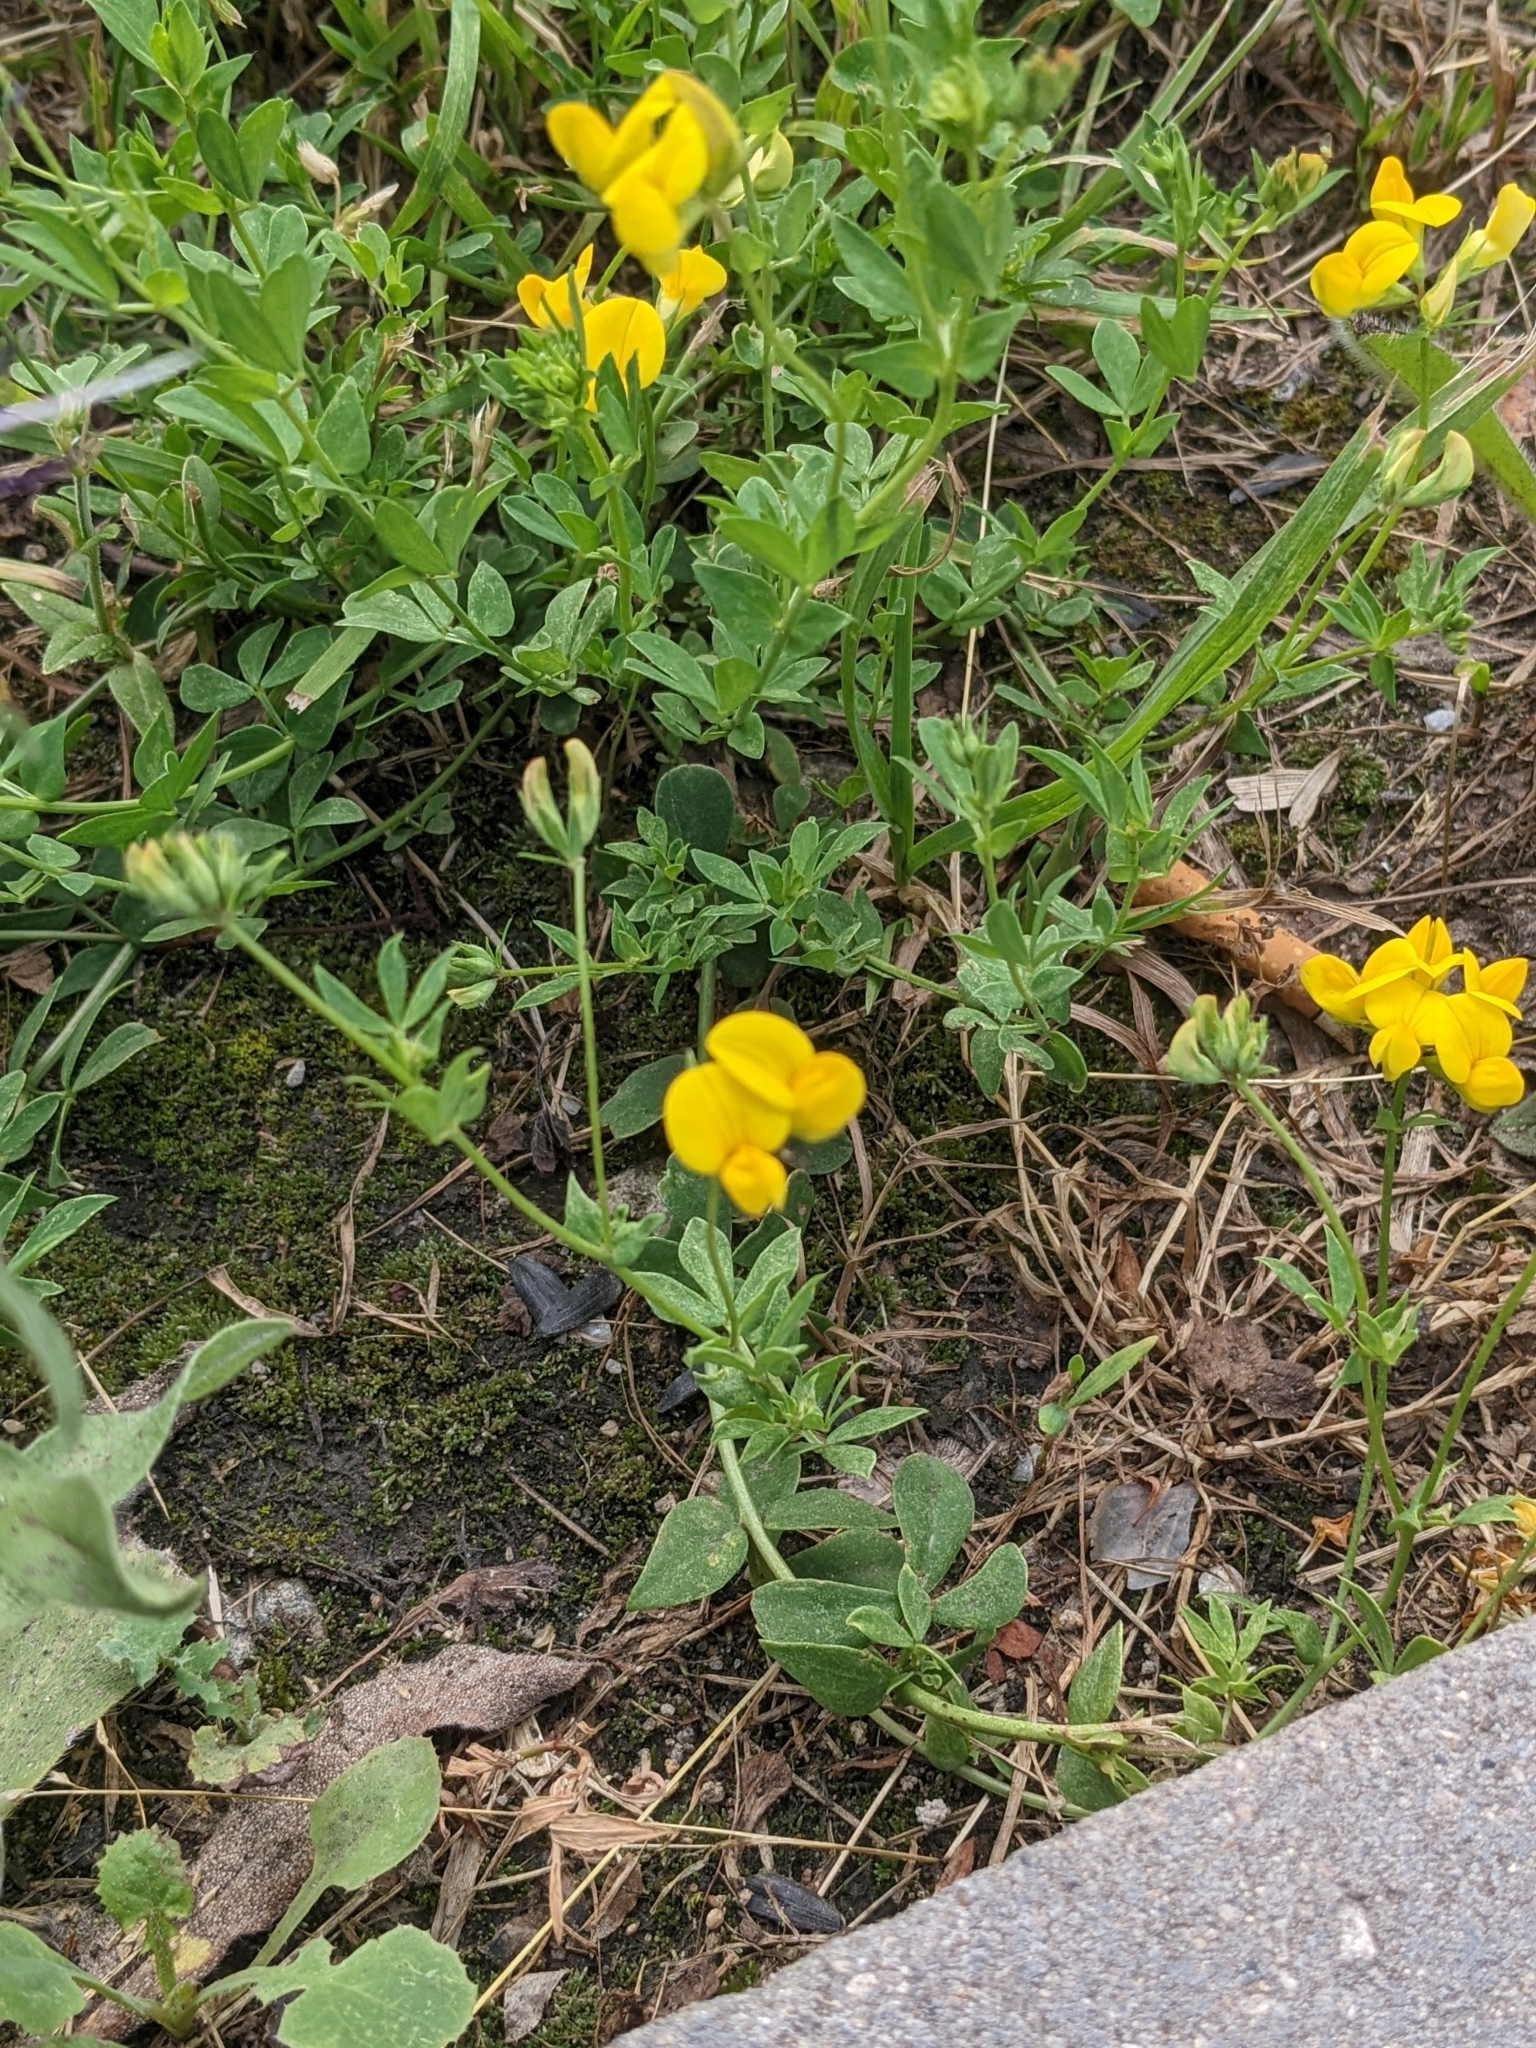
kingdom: Plantae
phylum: Tracheophyta
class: Magnoliopsida
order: Fabales
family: Fabaceae
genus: Lotus
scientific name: Lotus corniculatus
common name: Common bird's-foot-trefoil
